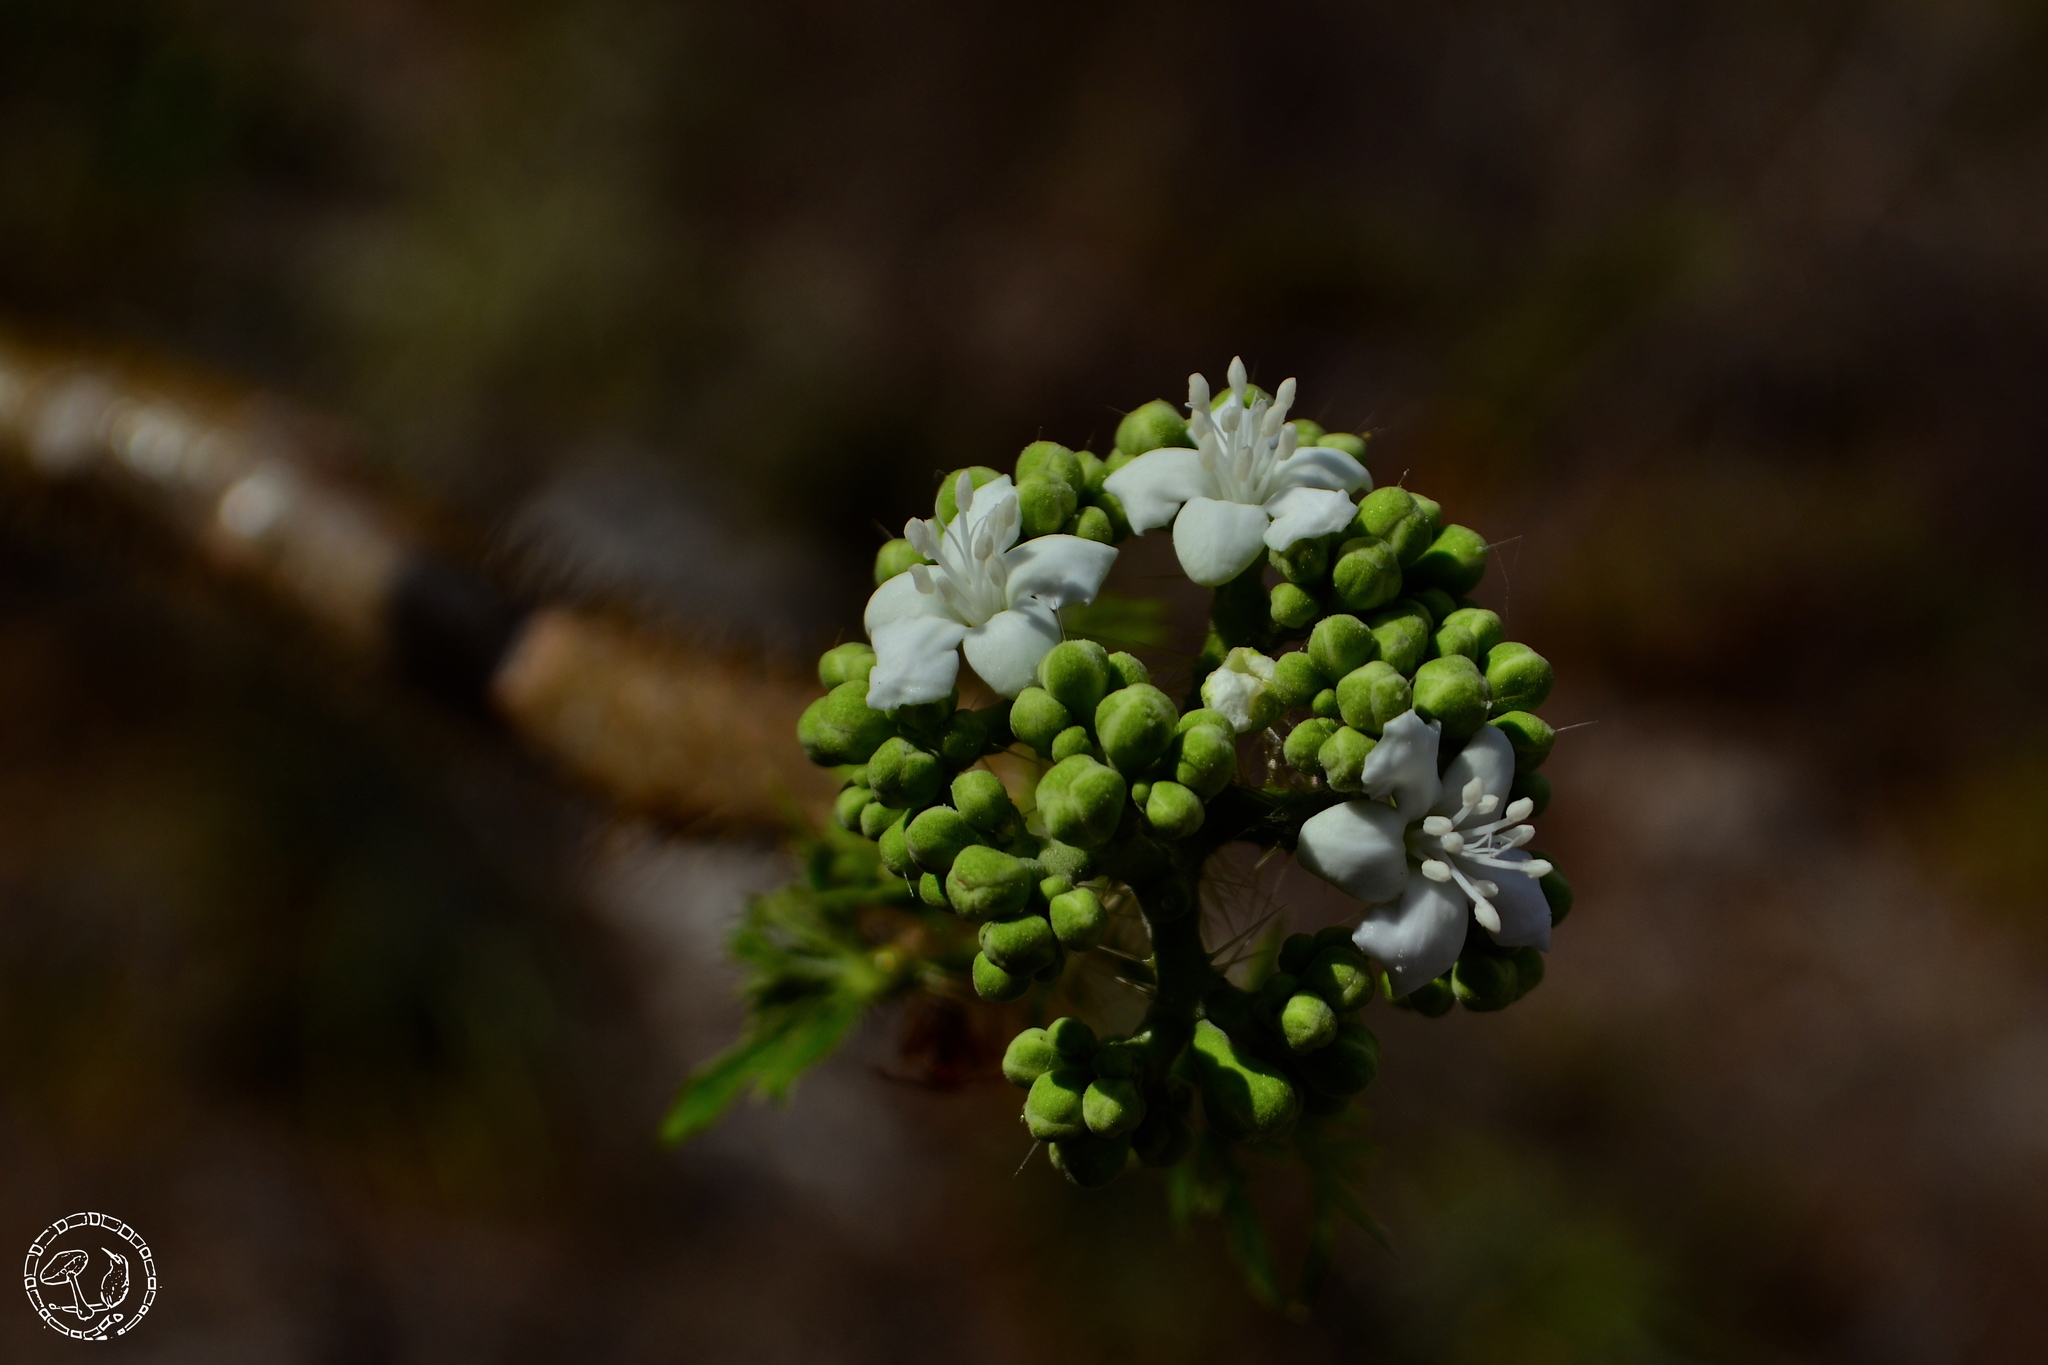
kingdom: Plantae
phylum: Tracheophyta
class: Magnoliopsida
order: Malpighiales
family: Euphorbiaceae
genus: Cnidoscolus
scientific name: Cnidoscolus aconitifolius
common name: Cabbage-star
